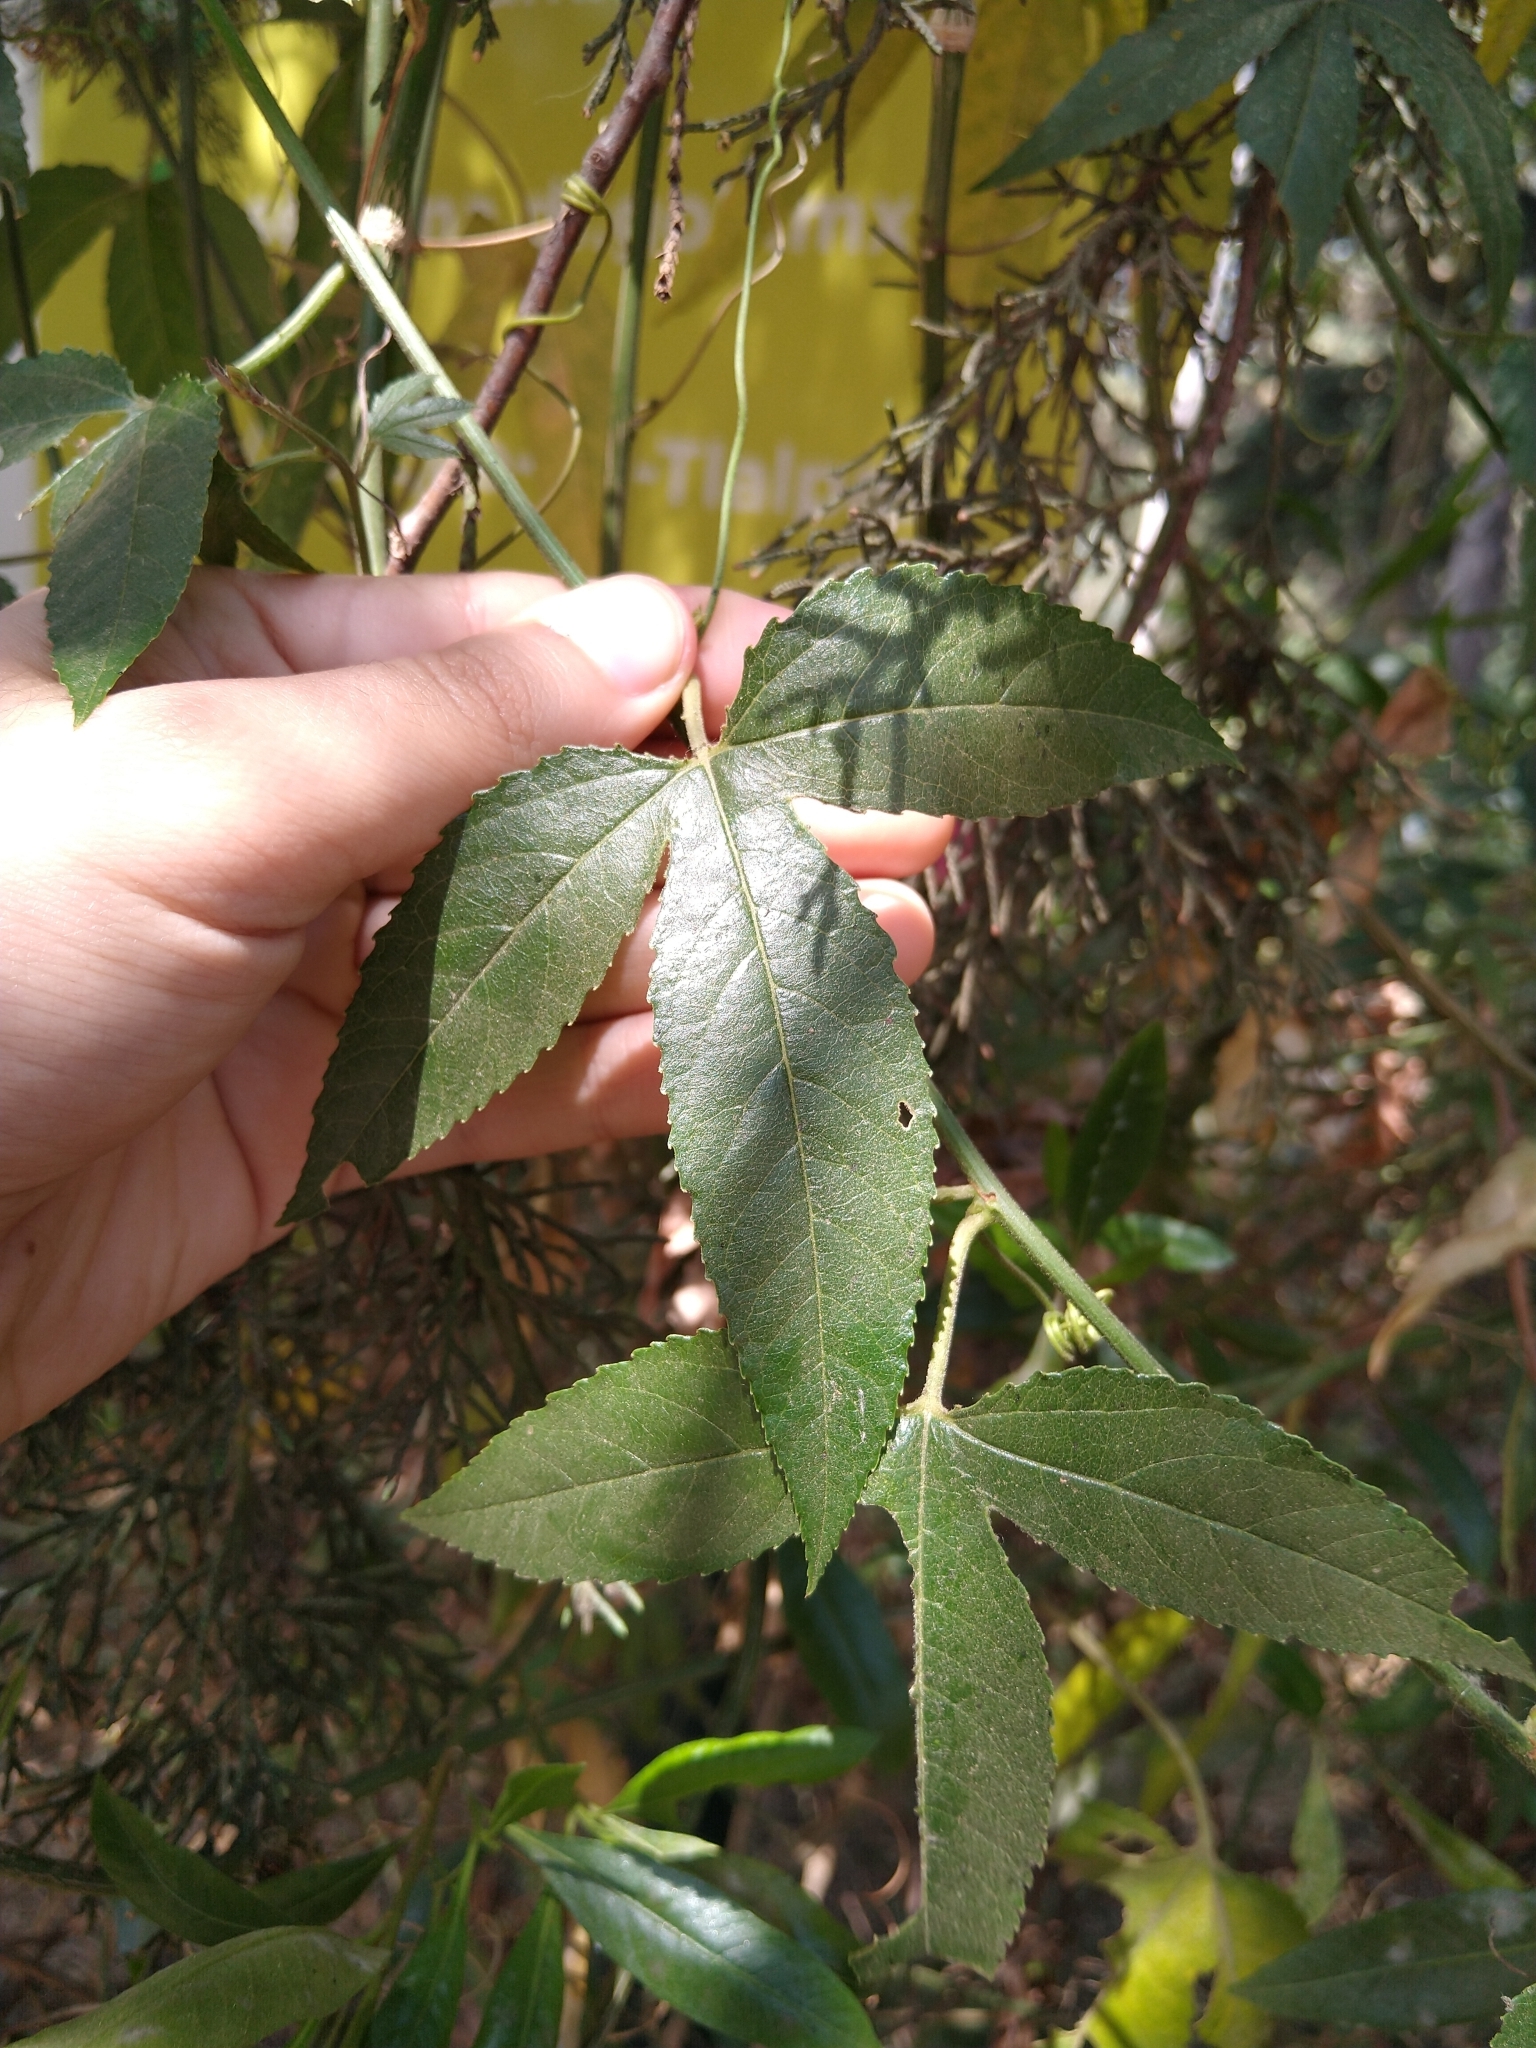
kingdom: Plantae
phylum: Tracheophyta
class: Magnoliopsida
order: Malpighiales
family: Passifloraceae
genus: Passiflora
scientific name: Passiflora tarminiana
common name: Banana poka
